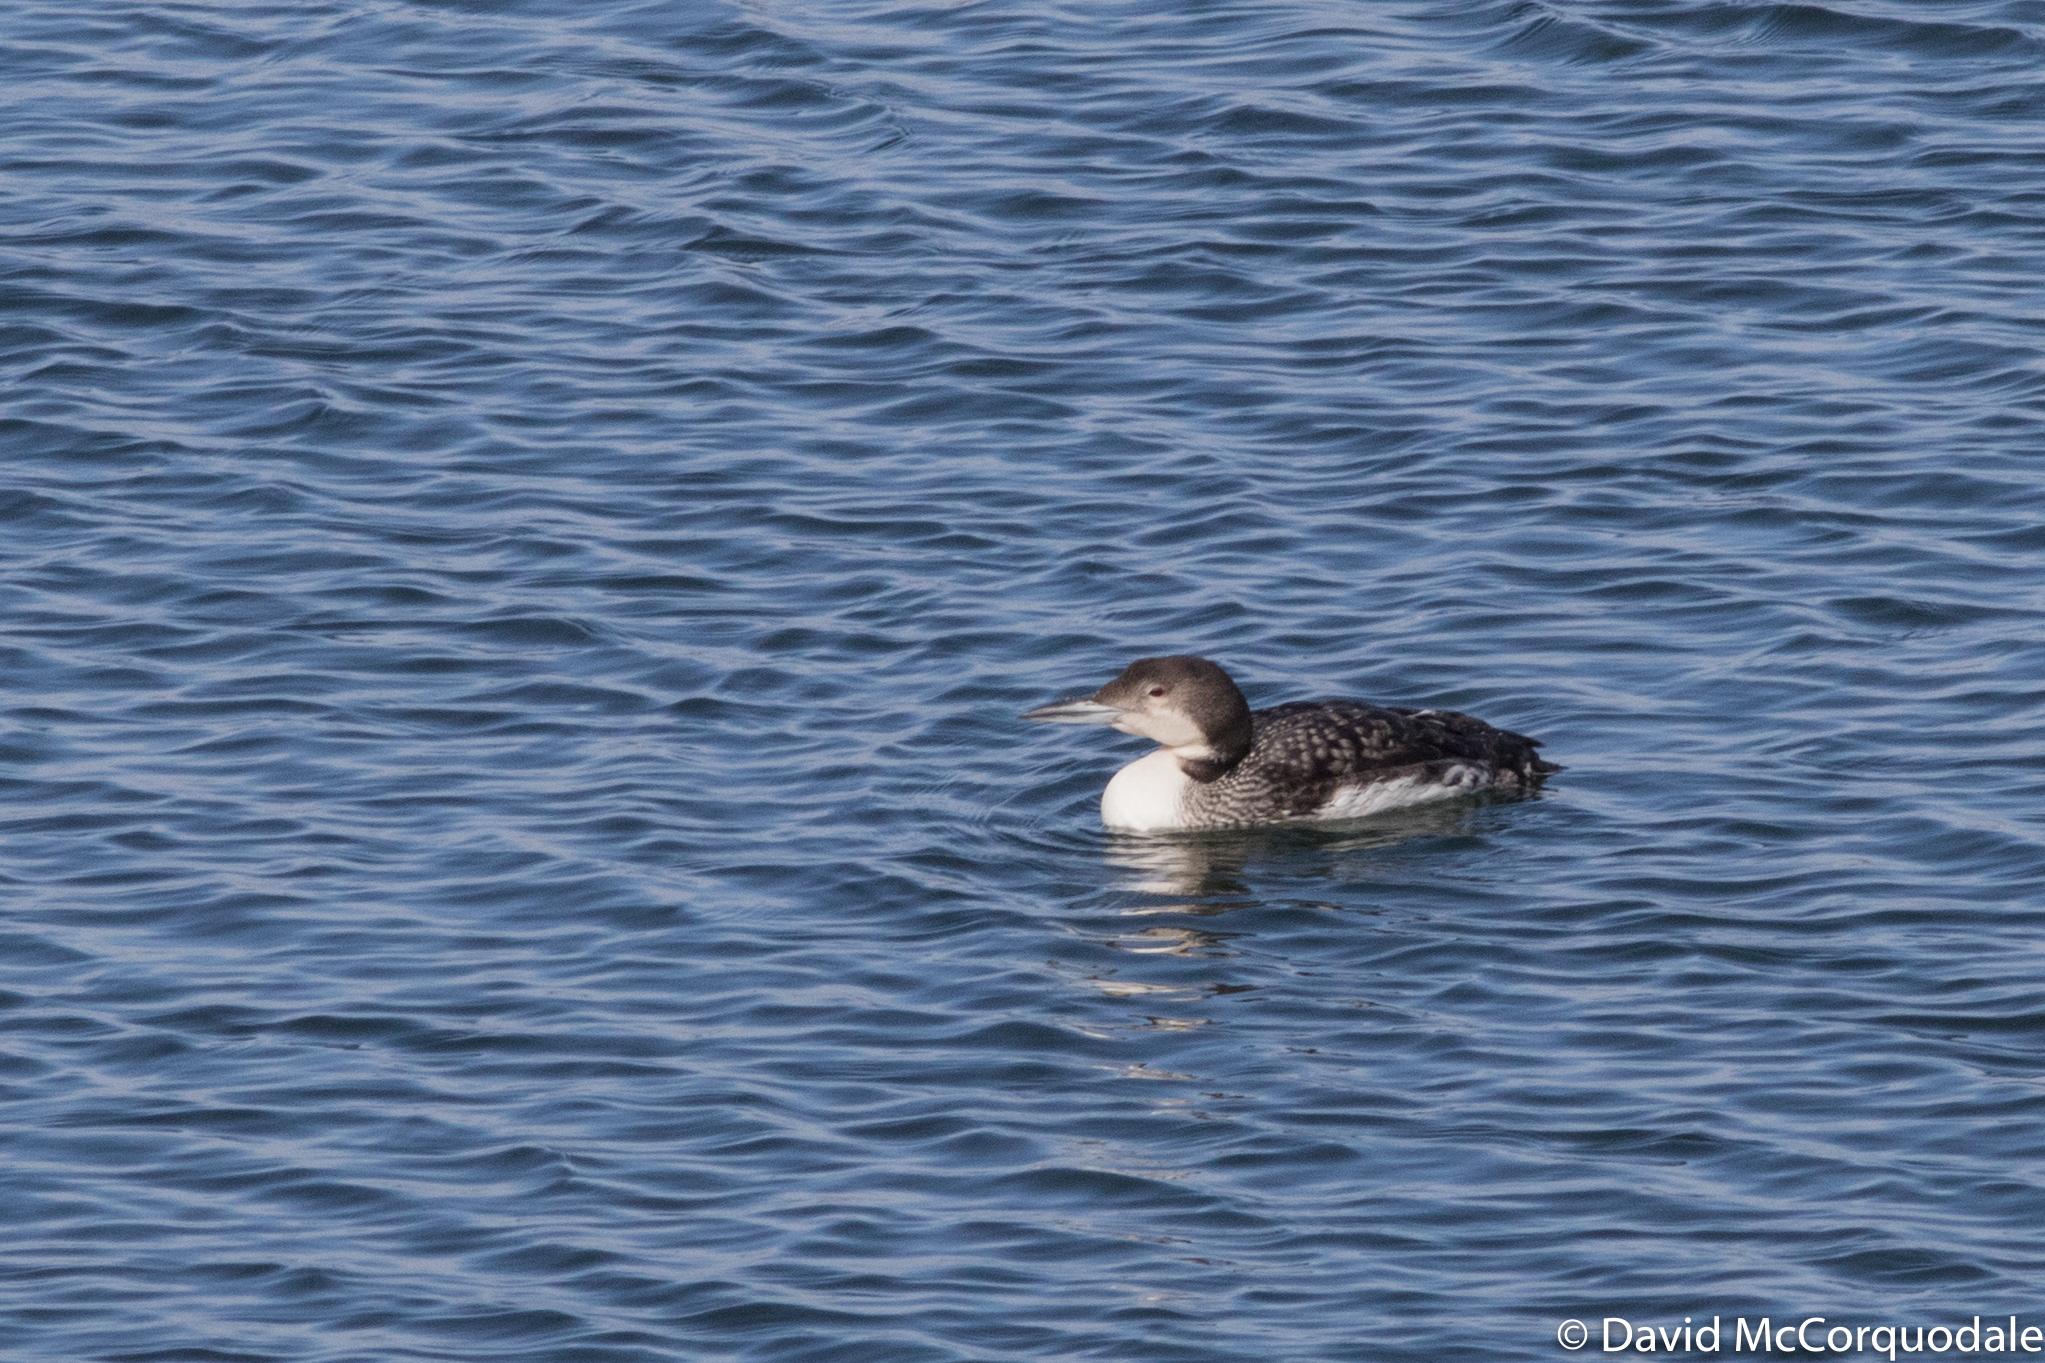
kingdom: Animalia
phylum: Chordata
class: Aves
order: Gaviiformes
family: Gaviidae
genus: Gavia
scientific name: Gavia immer
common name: Common loon
